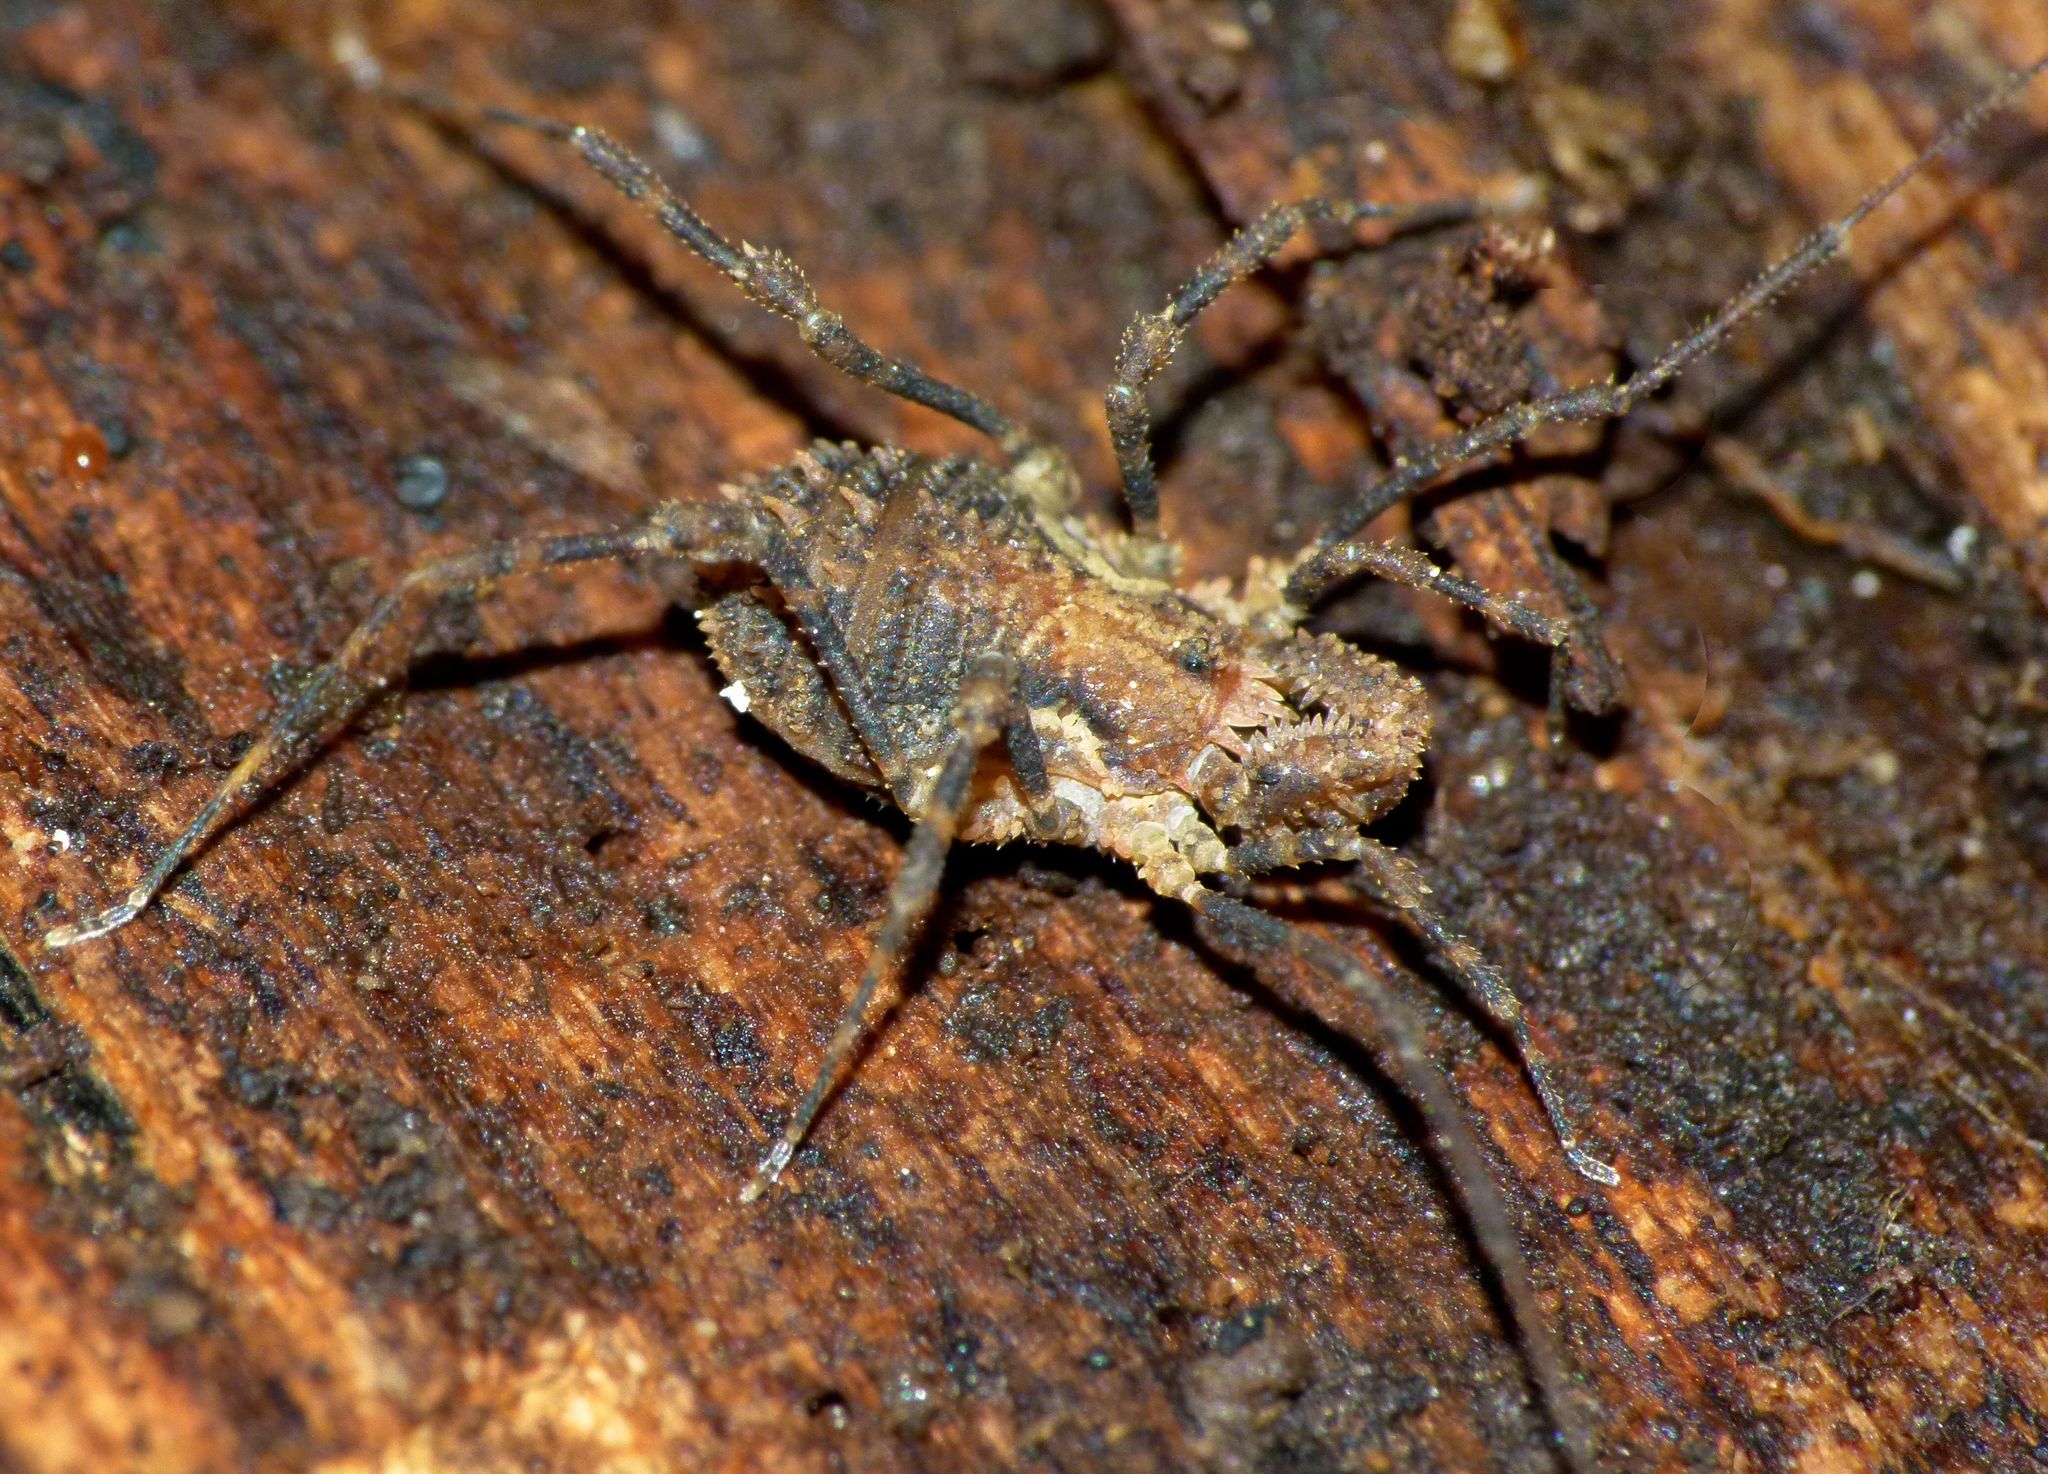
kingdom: Animalia
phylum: Arthropoda
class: Arachnida
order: Opiliones
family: Triaenonychidae
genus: Algidia
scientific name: Algidia cuspidata
